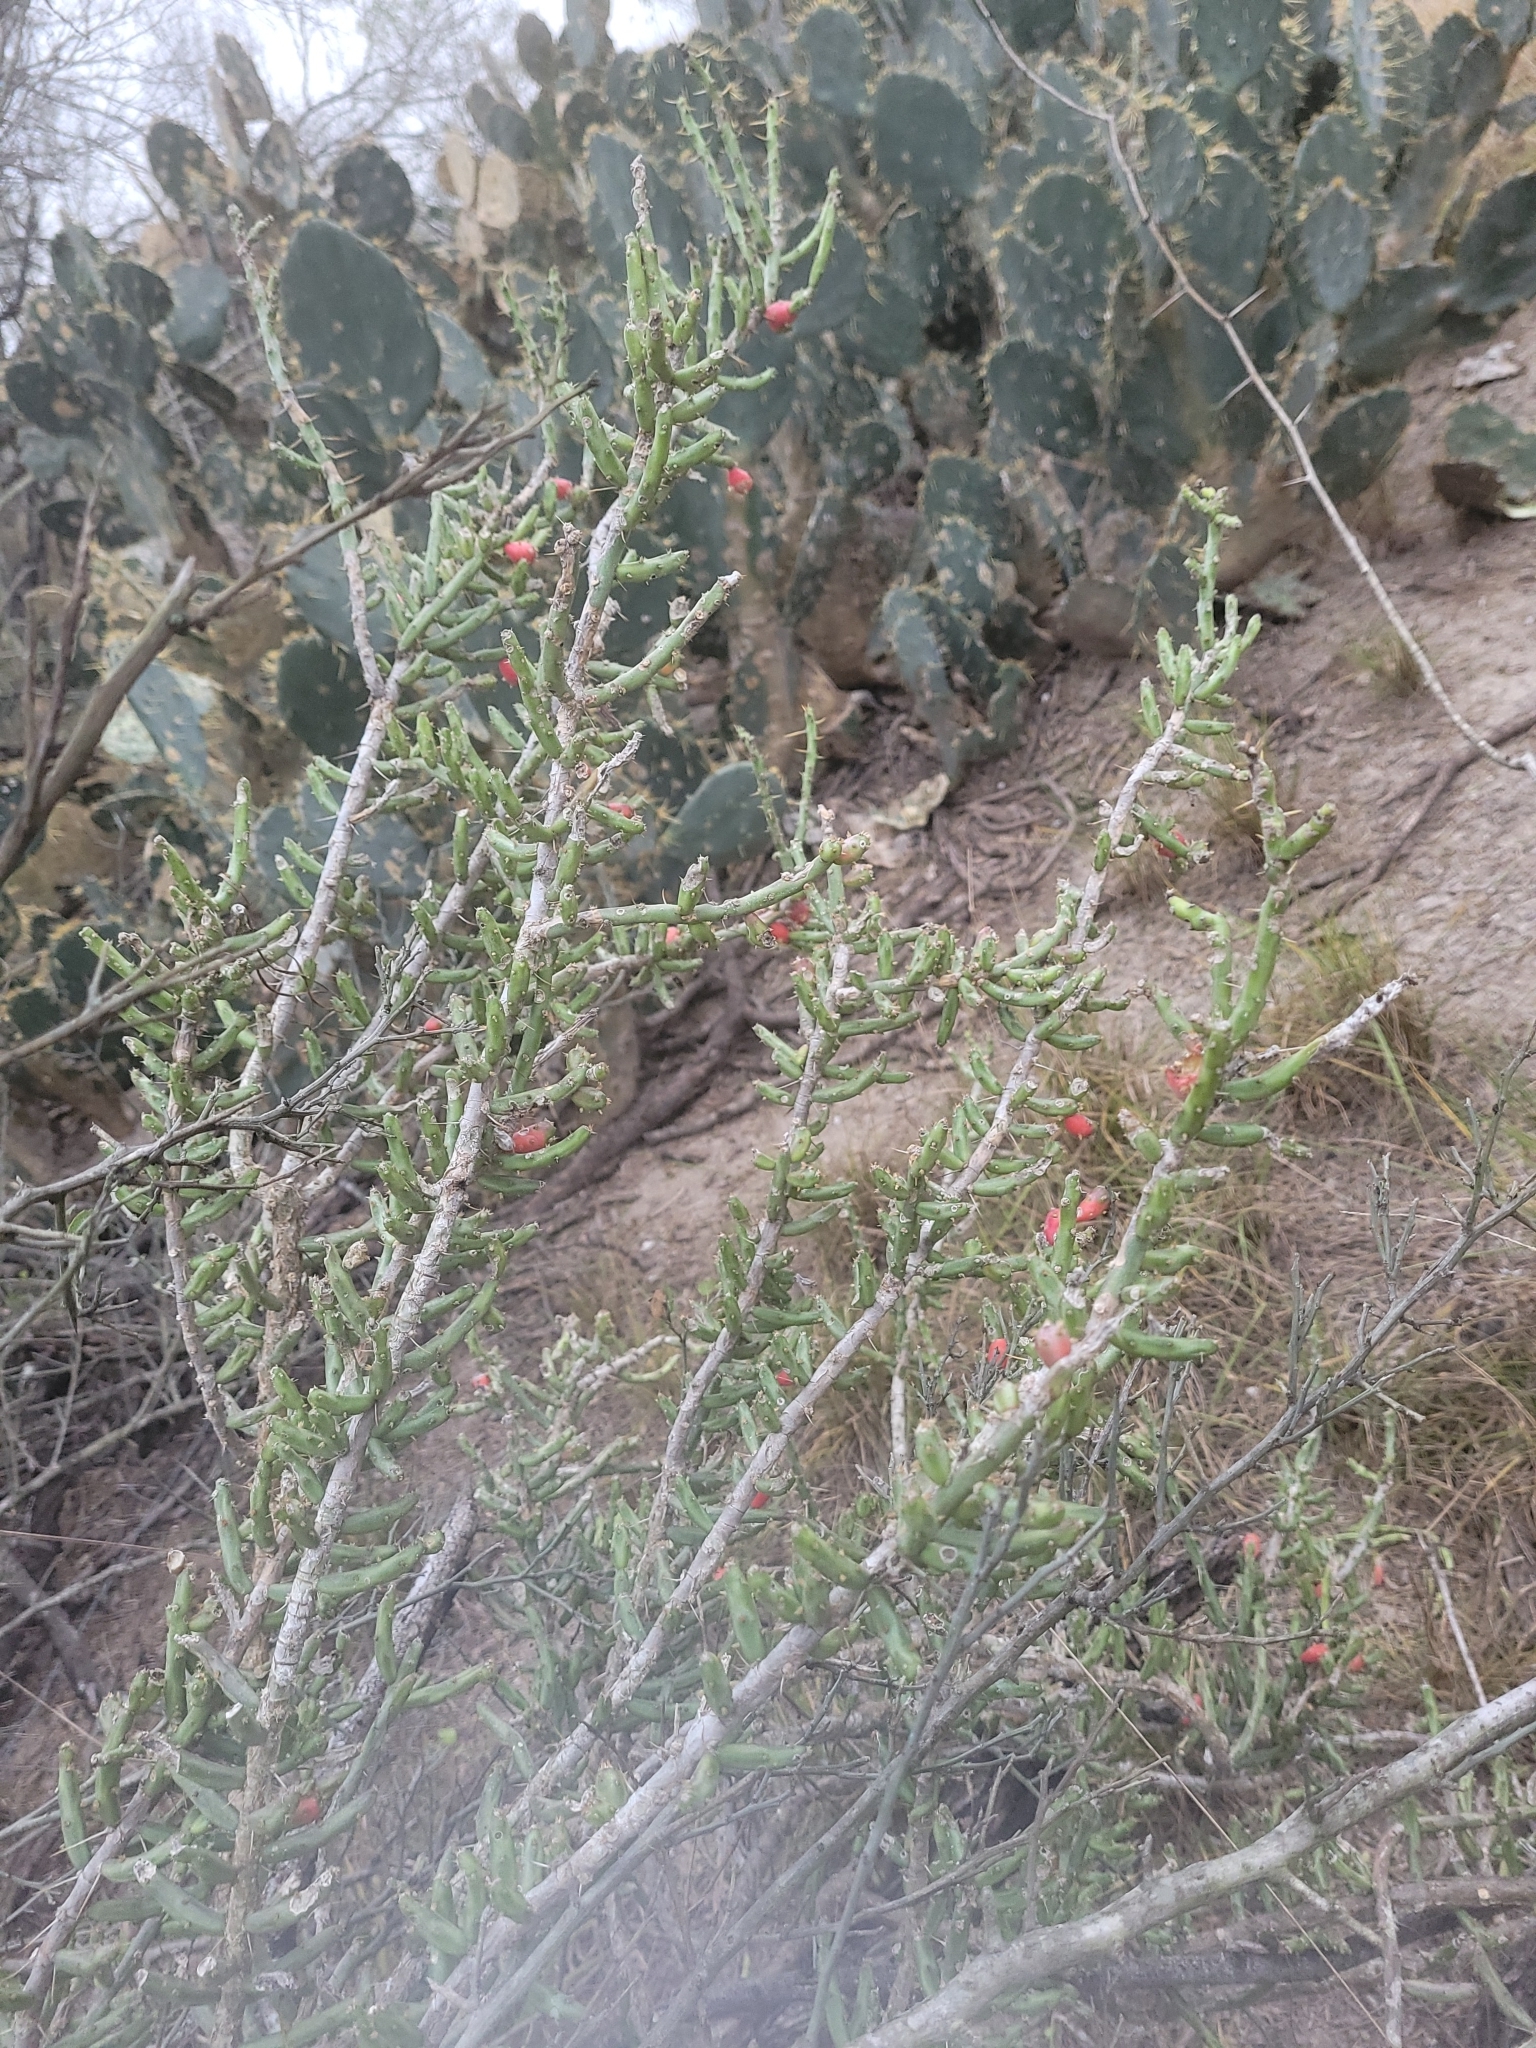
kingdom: Plantae
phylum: Tracheophyta
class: Magnoliopsida
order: Caryophyllales
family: Cactaceae
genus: Cylindropuntia
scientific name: Cylindropuntia leptocaulis
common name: Christmas cactus
